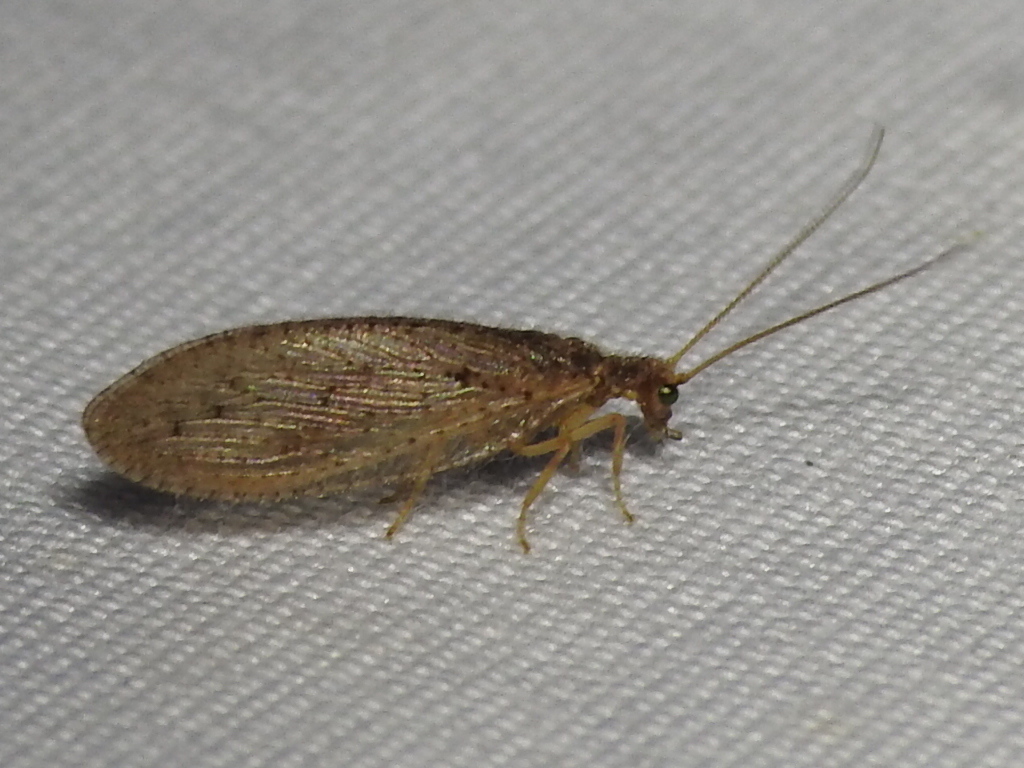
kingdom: Animalia
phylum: Arthropoda
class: Insecta
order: Neuroptera
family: Hemerobiidae
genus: Micromus
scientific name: Micromus subanticus
